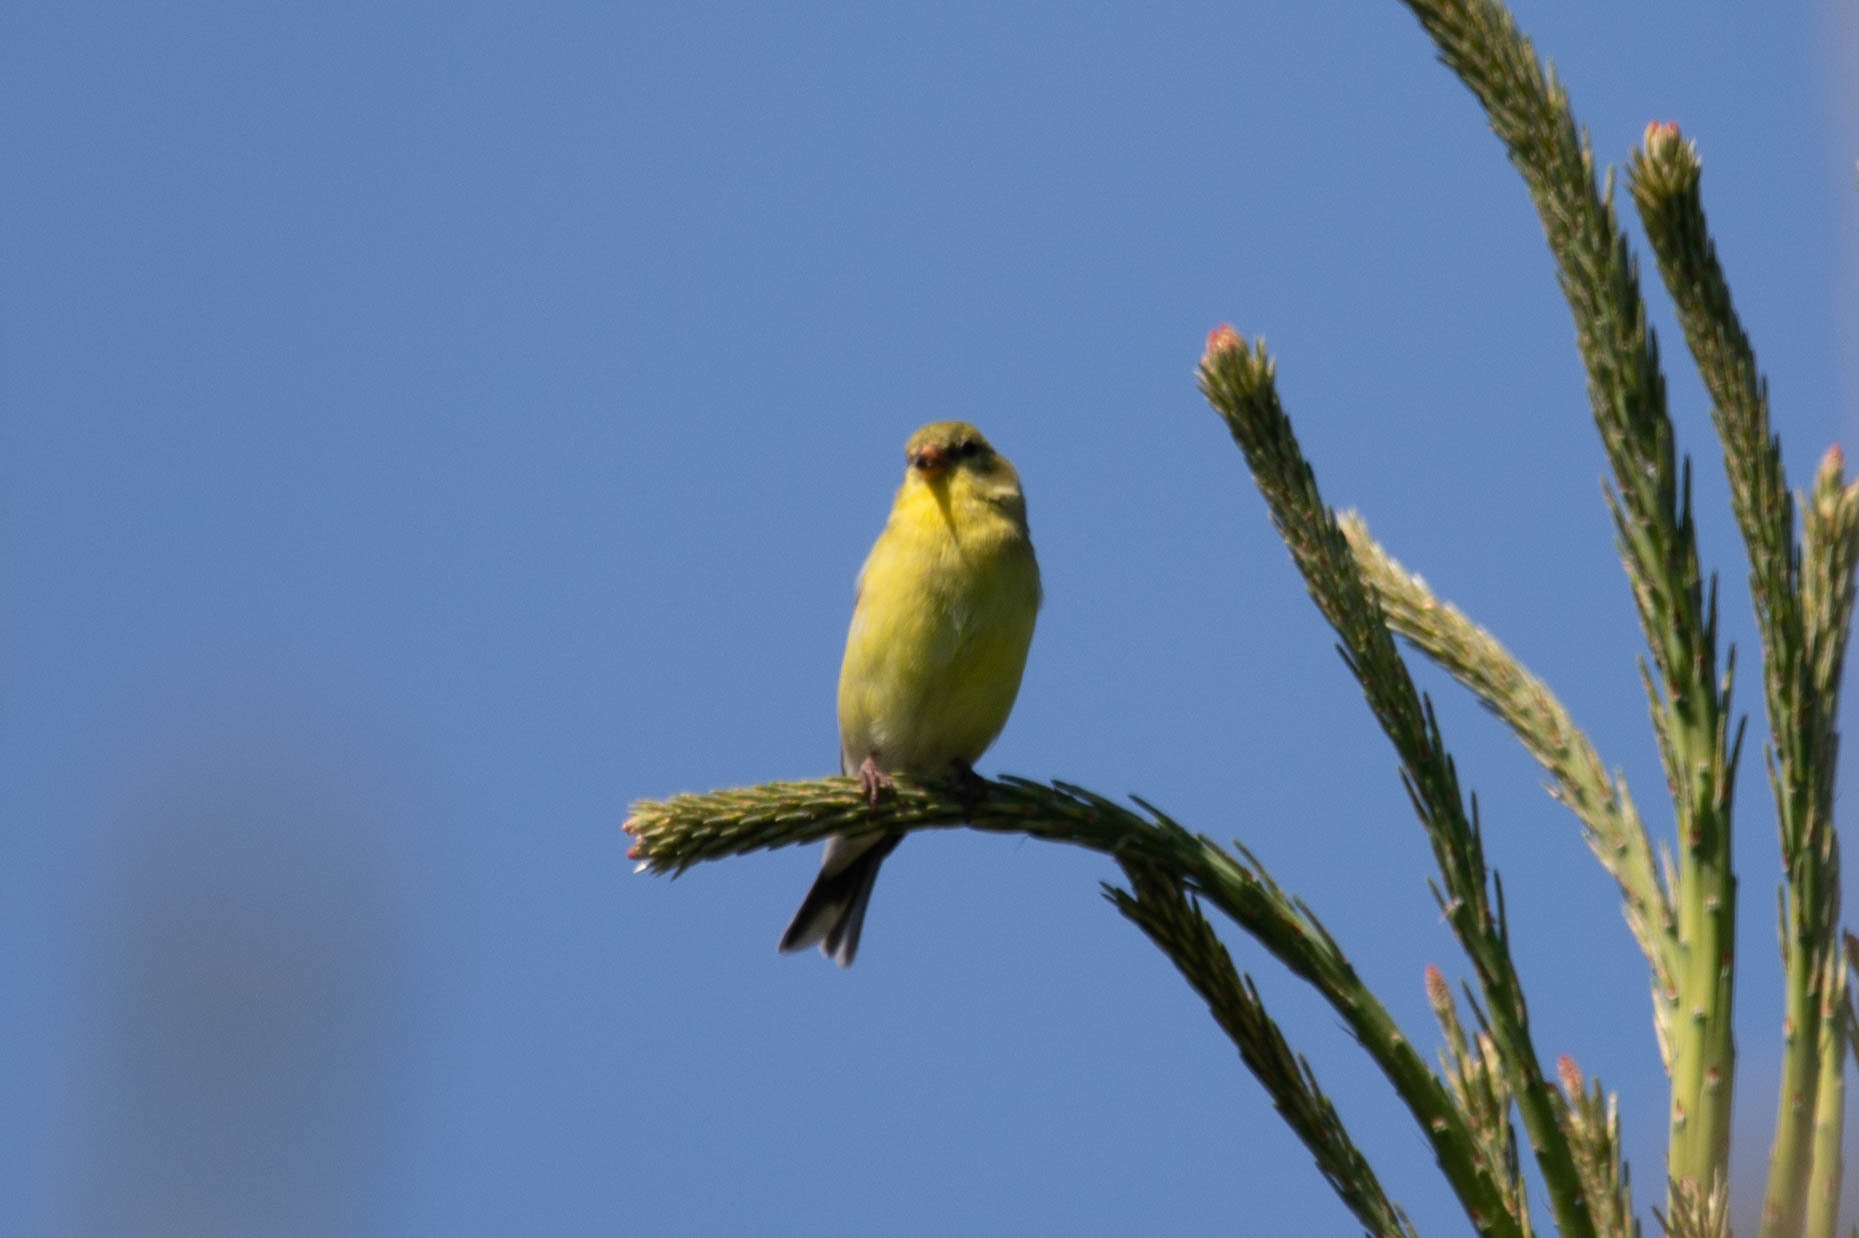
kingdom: Animalia
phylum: Chordata
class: Aves
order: Passeriformes
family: Fringillidae
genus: Spinus
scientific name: Spinus tristis
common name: American goldfinch
